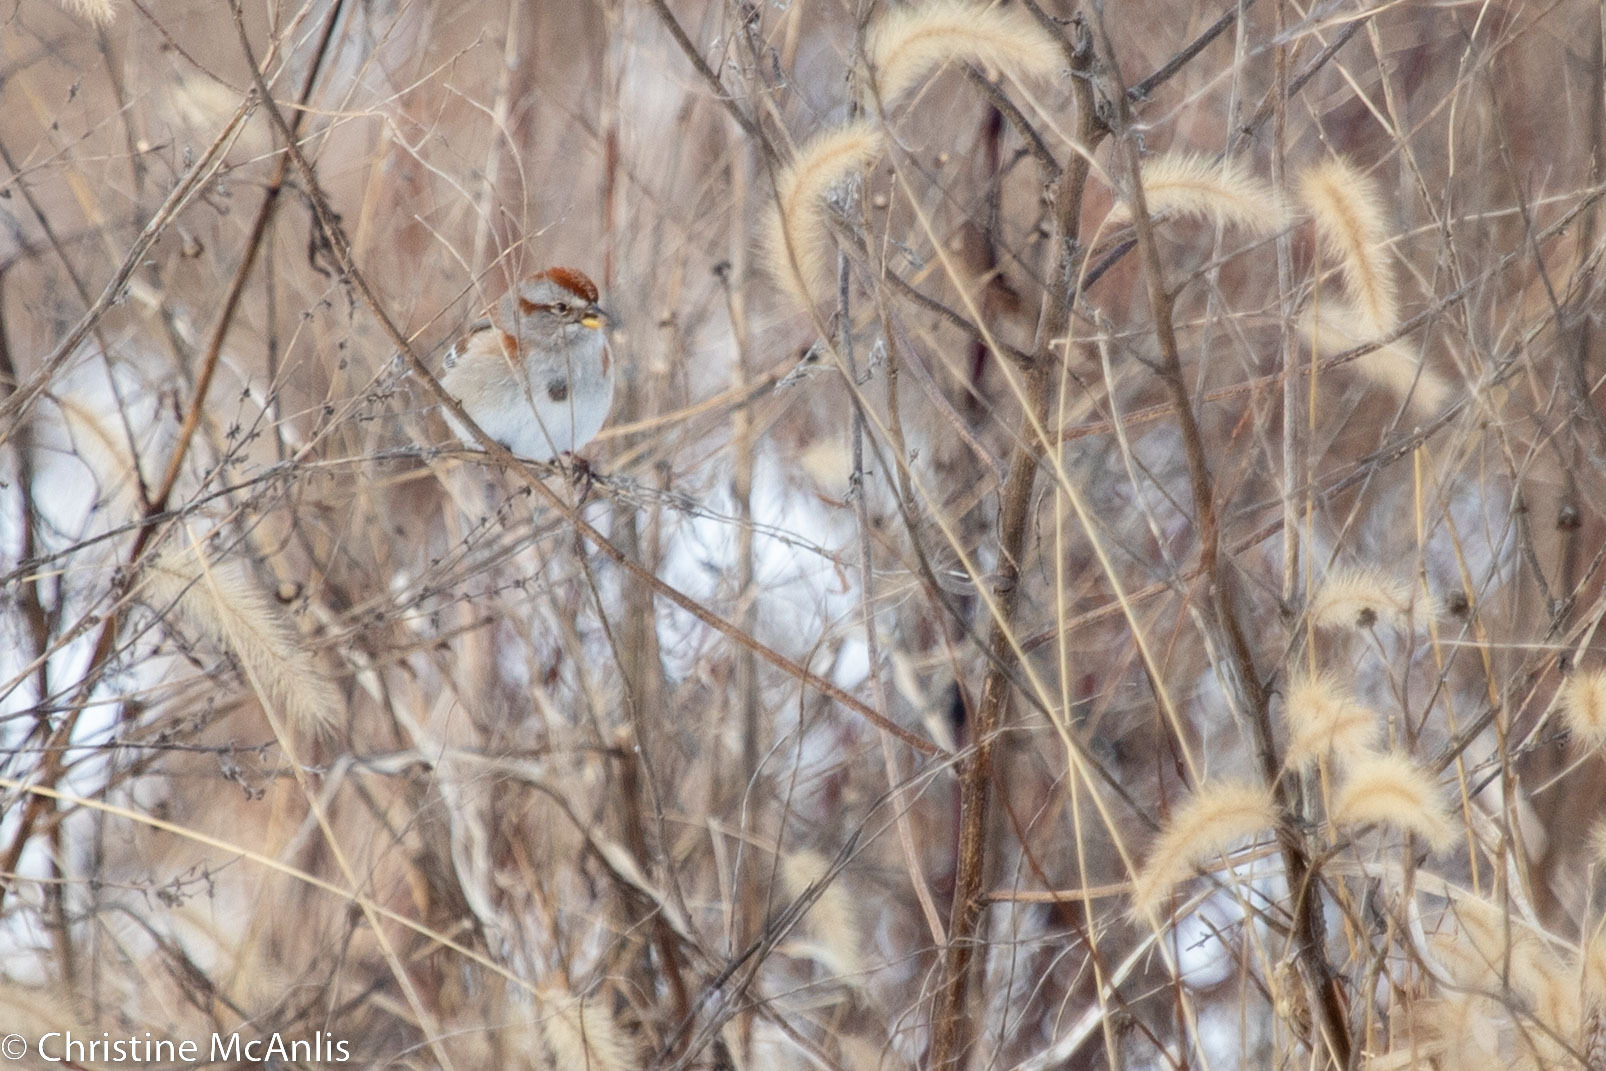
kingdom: Animalia
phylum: Chordata
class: Aves
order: Passeriformes
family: Passerellidae
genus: Spizelloides
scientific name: Spizelloides arborea
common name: American tree sparrow
